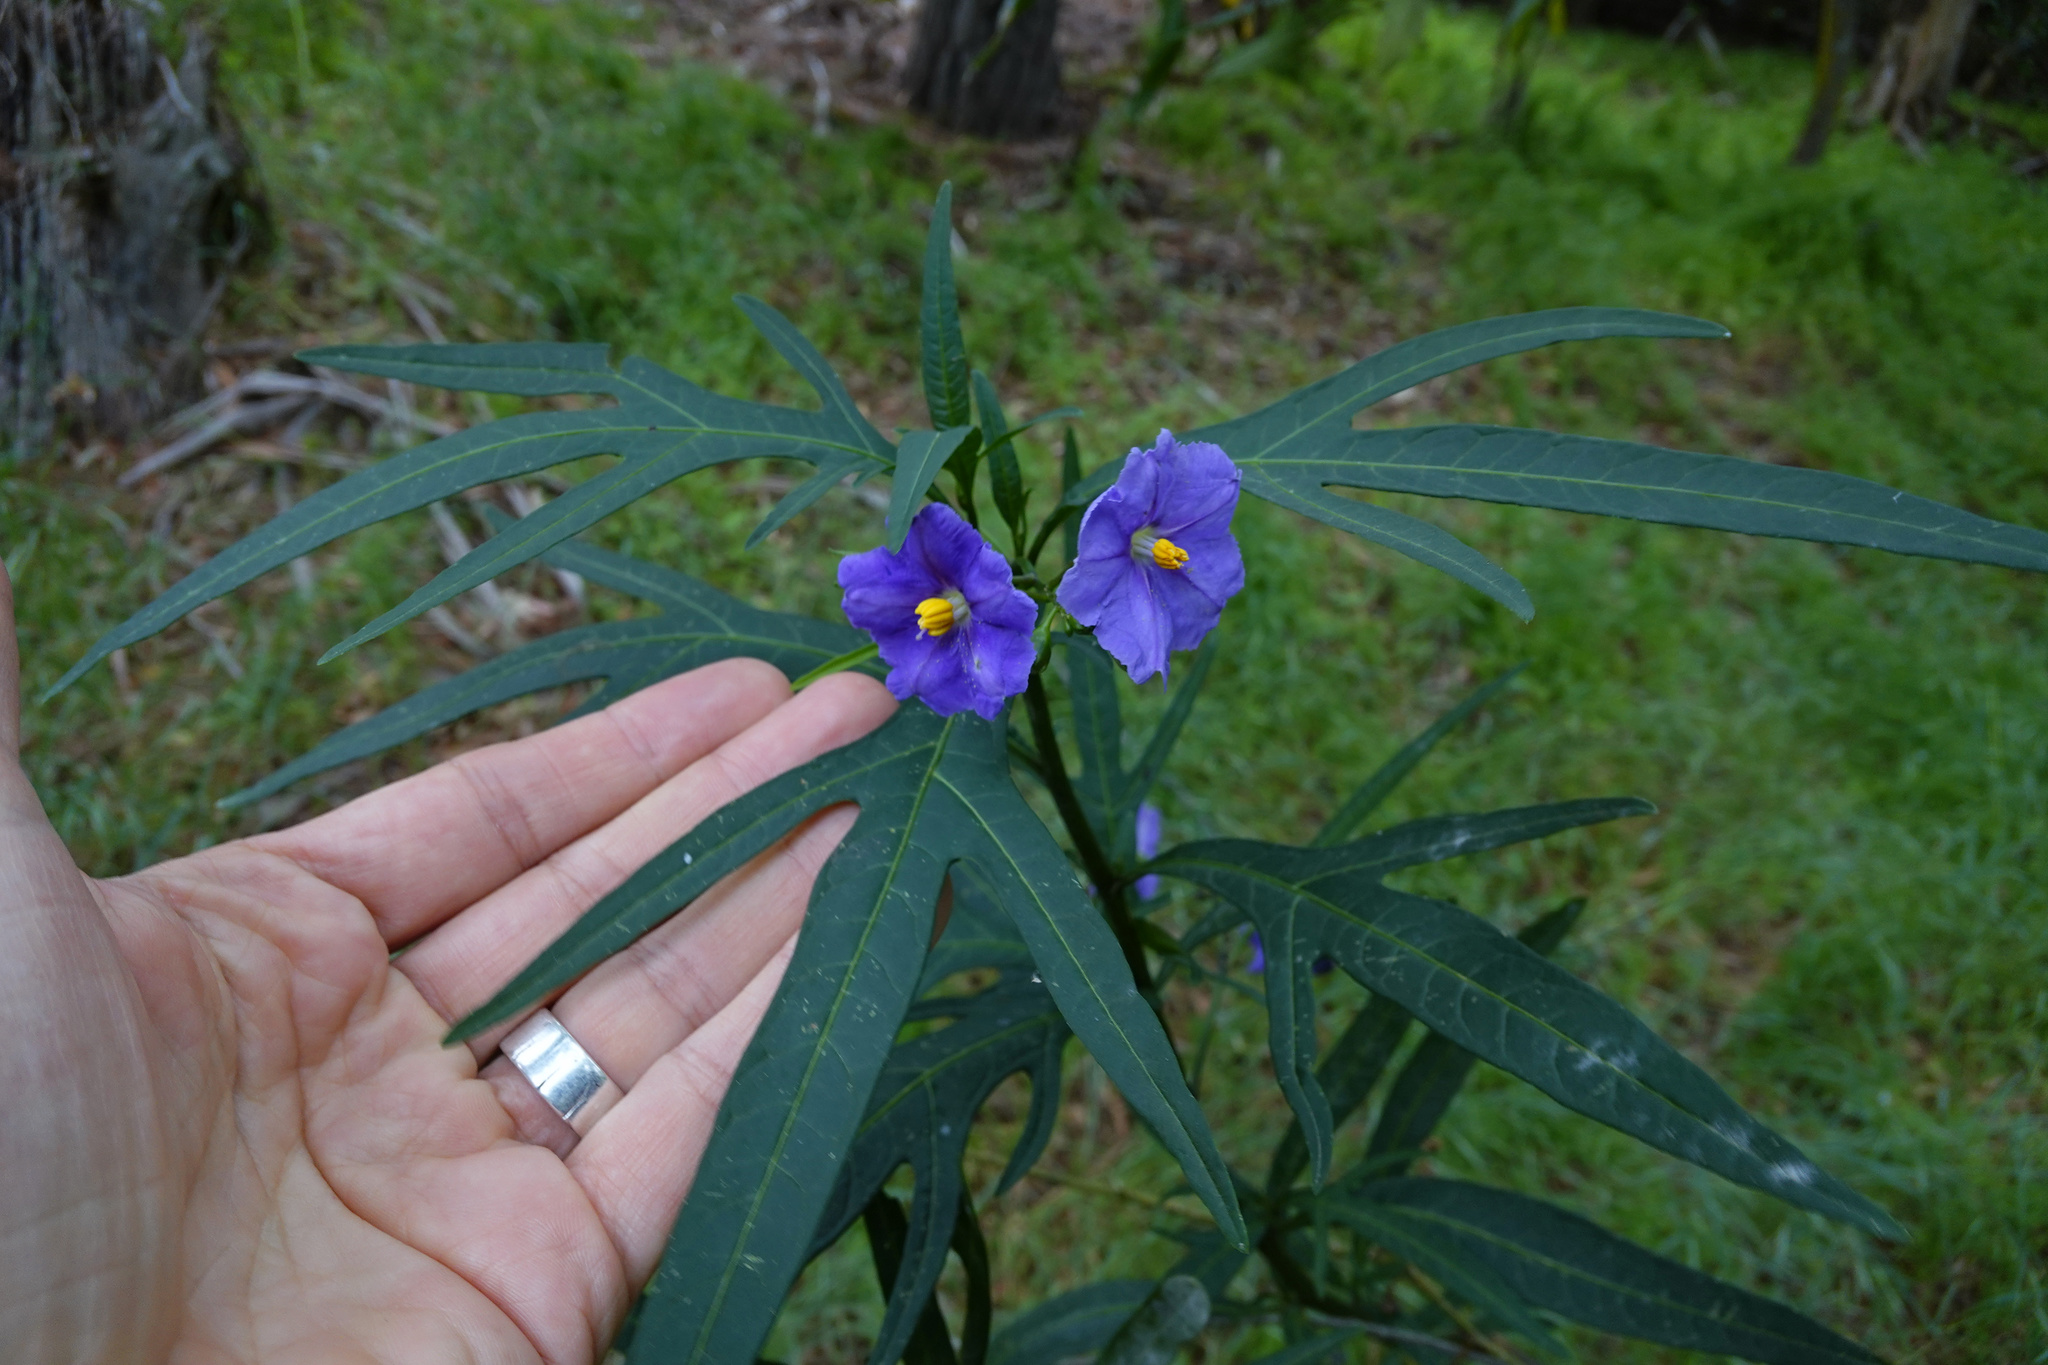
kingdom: Plantae
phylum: Tracheophyta
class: Magnoliopsida
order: Solanales
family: Solanaceae
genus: Solanum
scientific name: Solanum laciniatum
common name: Kangaroo-apple
